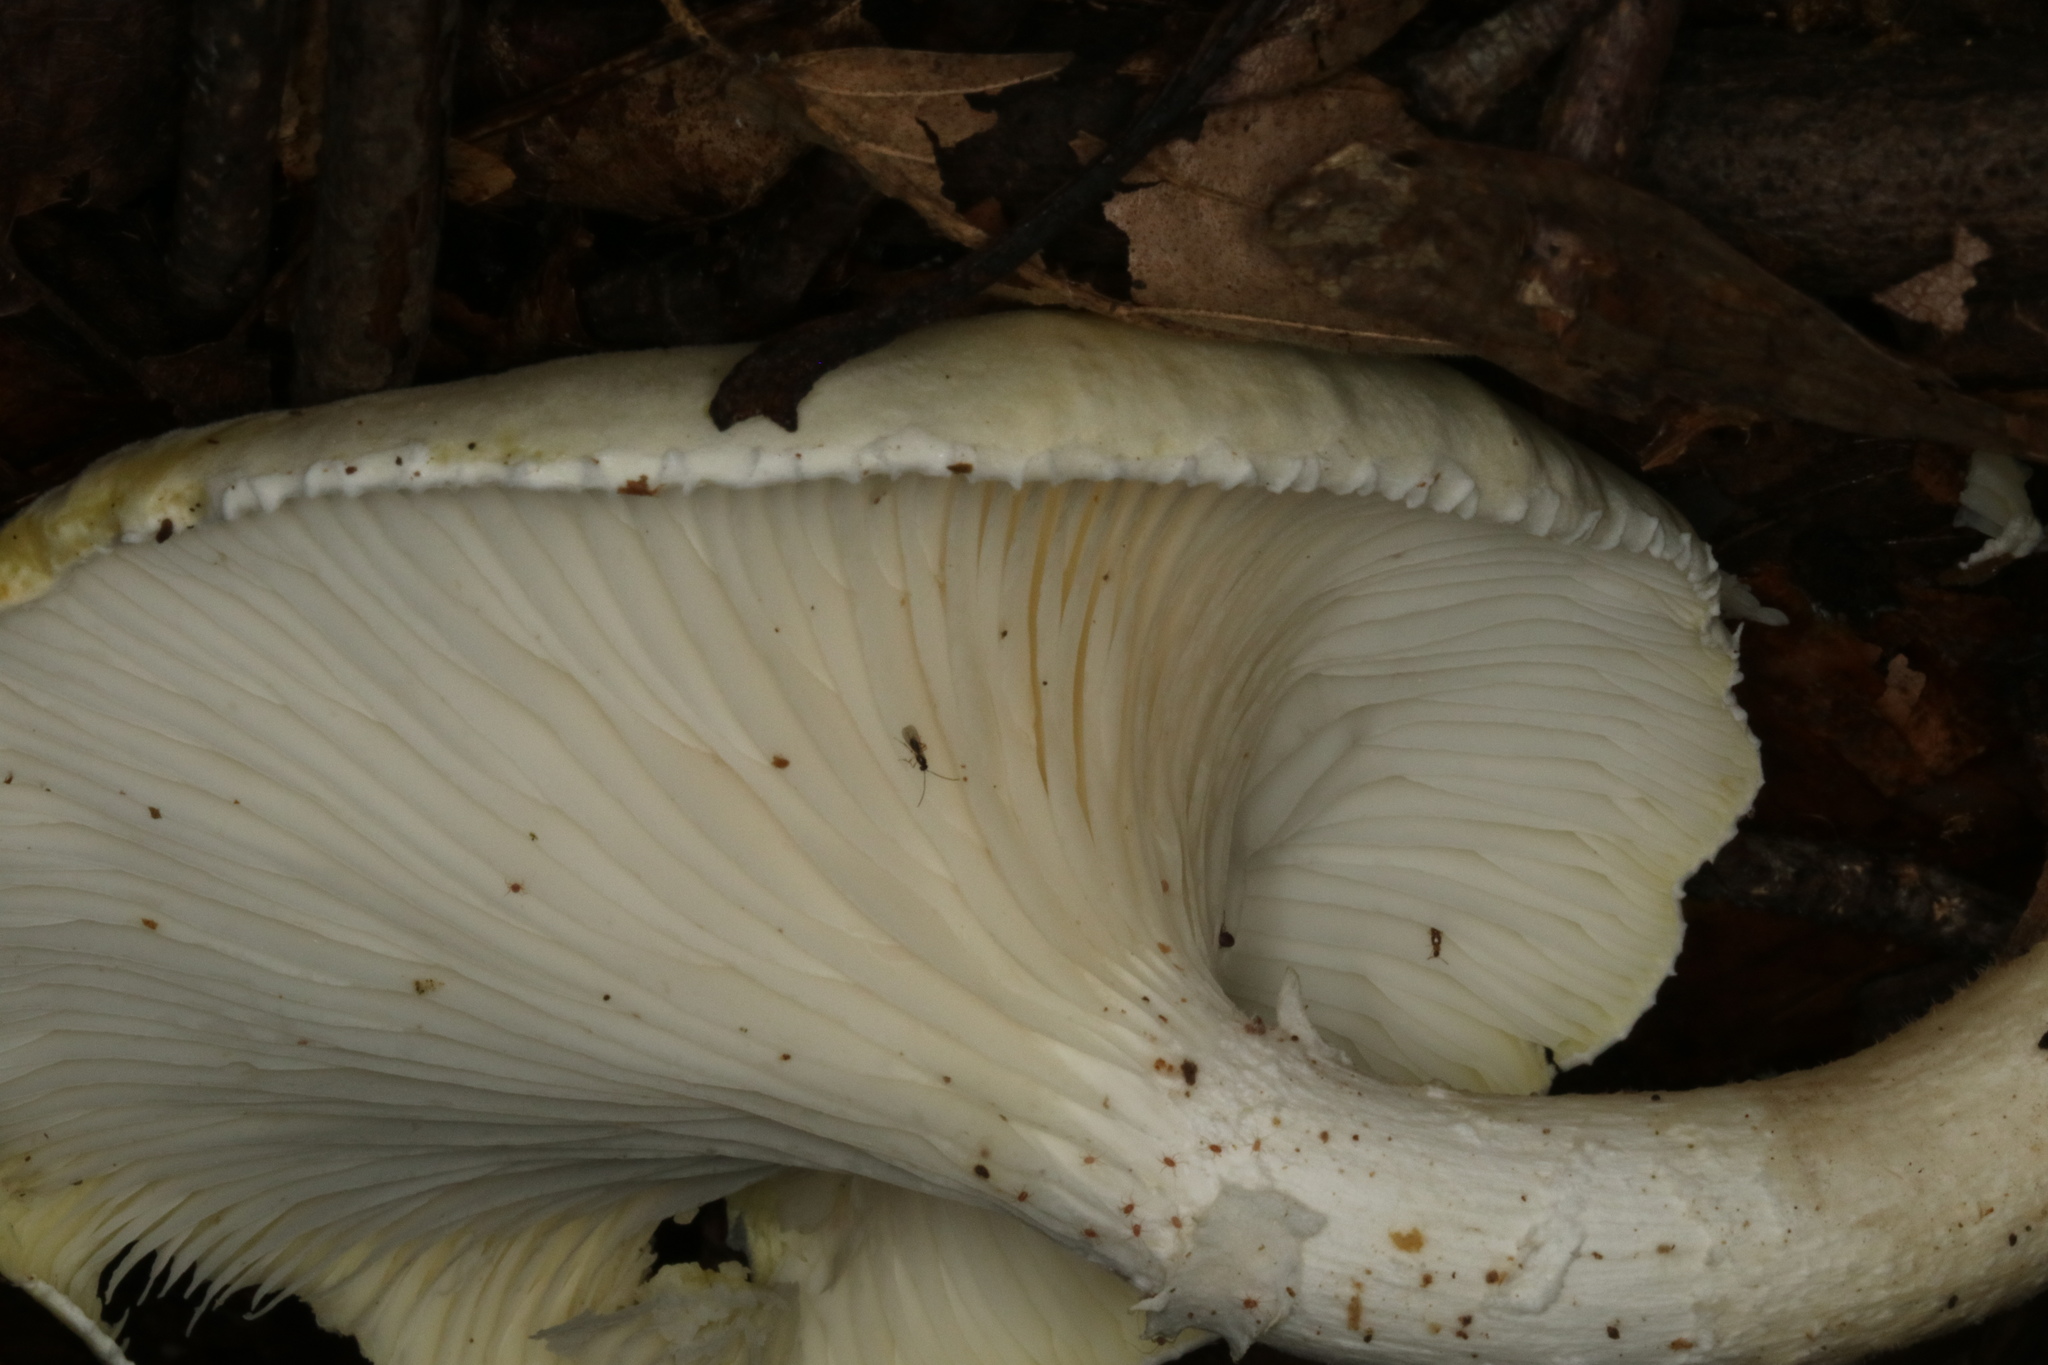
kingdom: Fungi
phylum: Basidiomycota
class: Agaricomycetes
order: Polyporales
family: Polyporaceae
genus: Lentinus
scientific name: Lentinus levis
